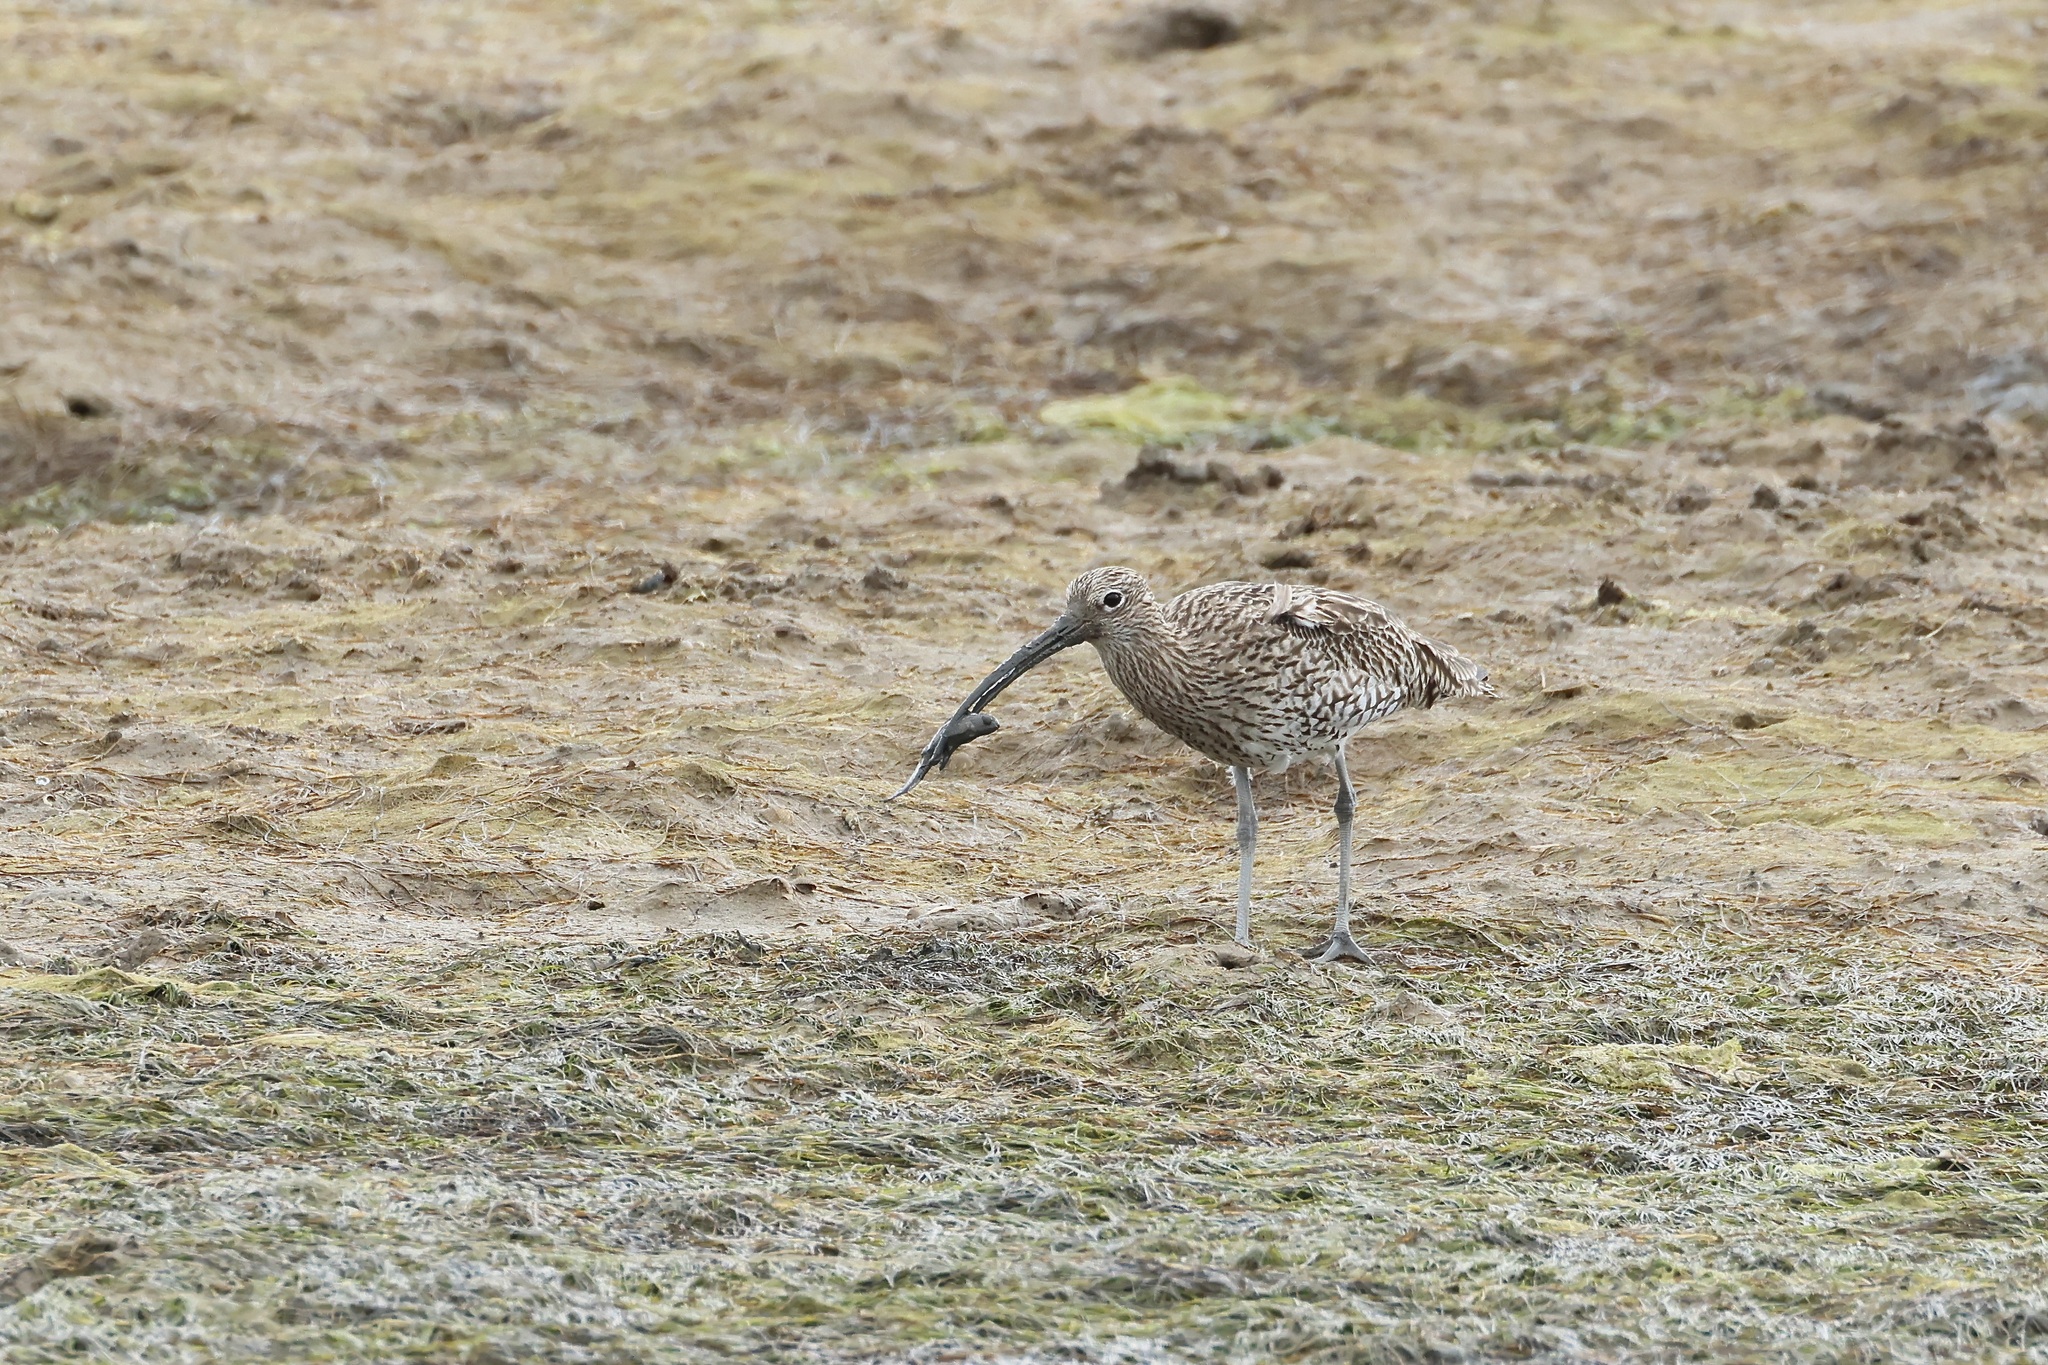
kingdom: Animalia
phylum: Chordata
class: Aves
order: Charadriiformes
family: Scolopacidae
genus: Numenius
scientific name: Numenius arquata
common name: Eurasian curlew
